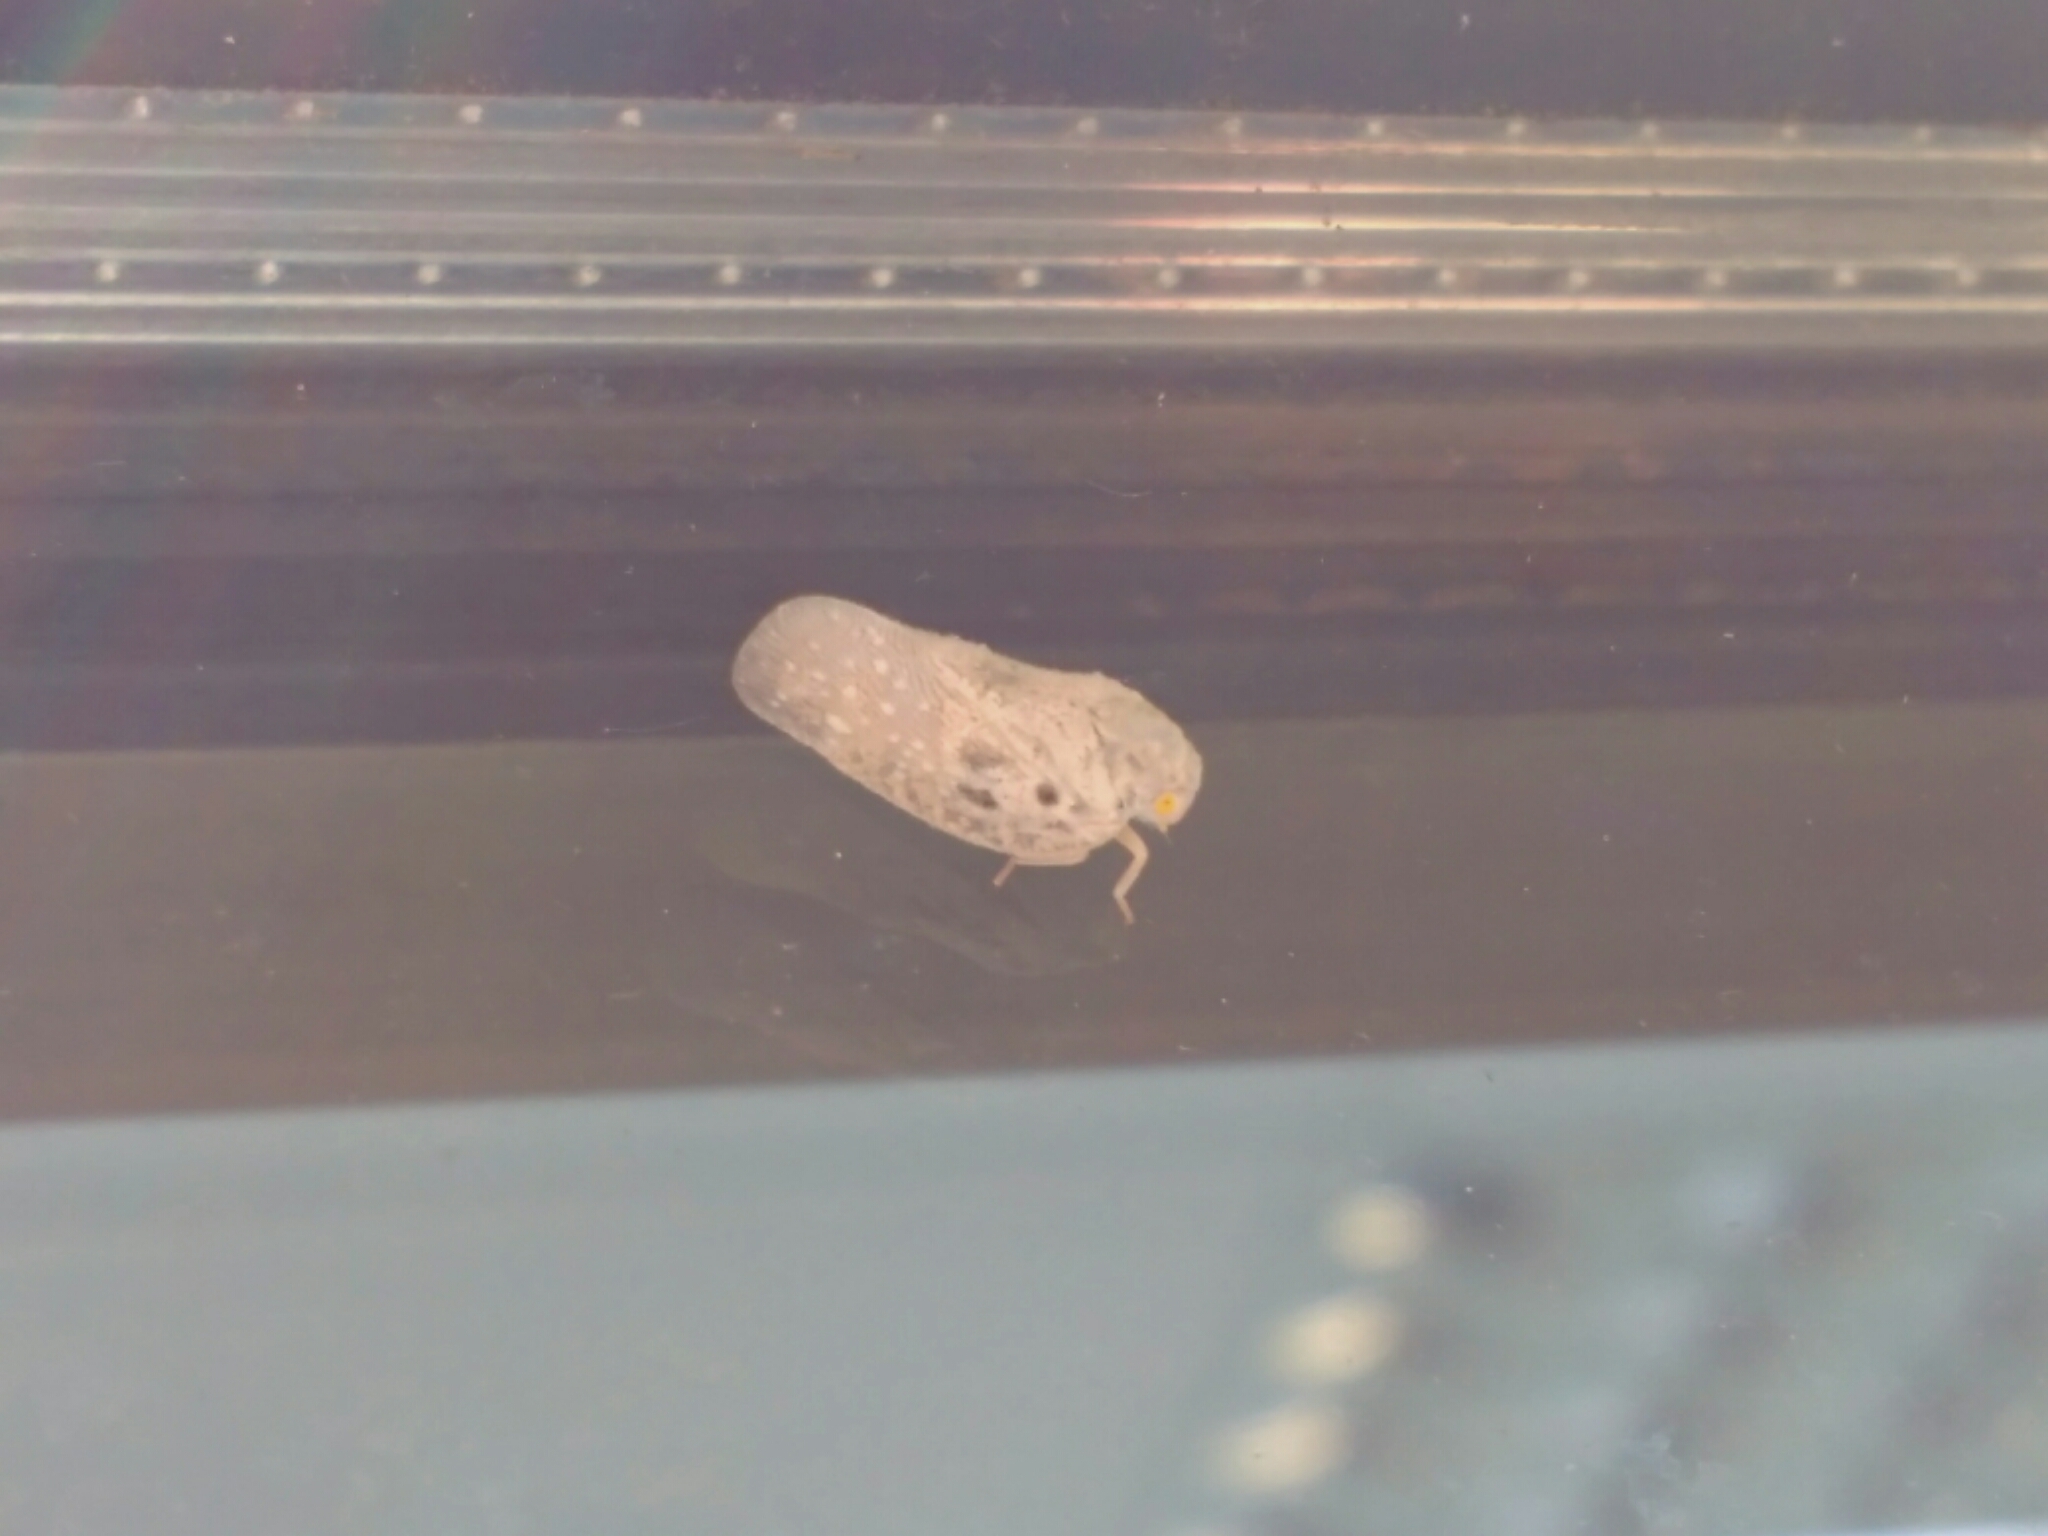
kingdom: Animalia
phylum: Arthropoda
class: Insecta
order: Hemiptera
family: Flatidae
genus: Metcalfa
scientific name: Metcalfa pruinosa
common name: Citrus flatid planthopper
